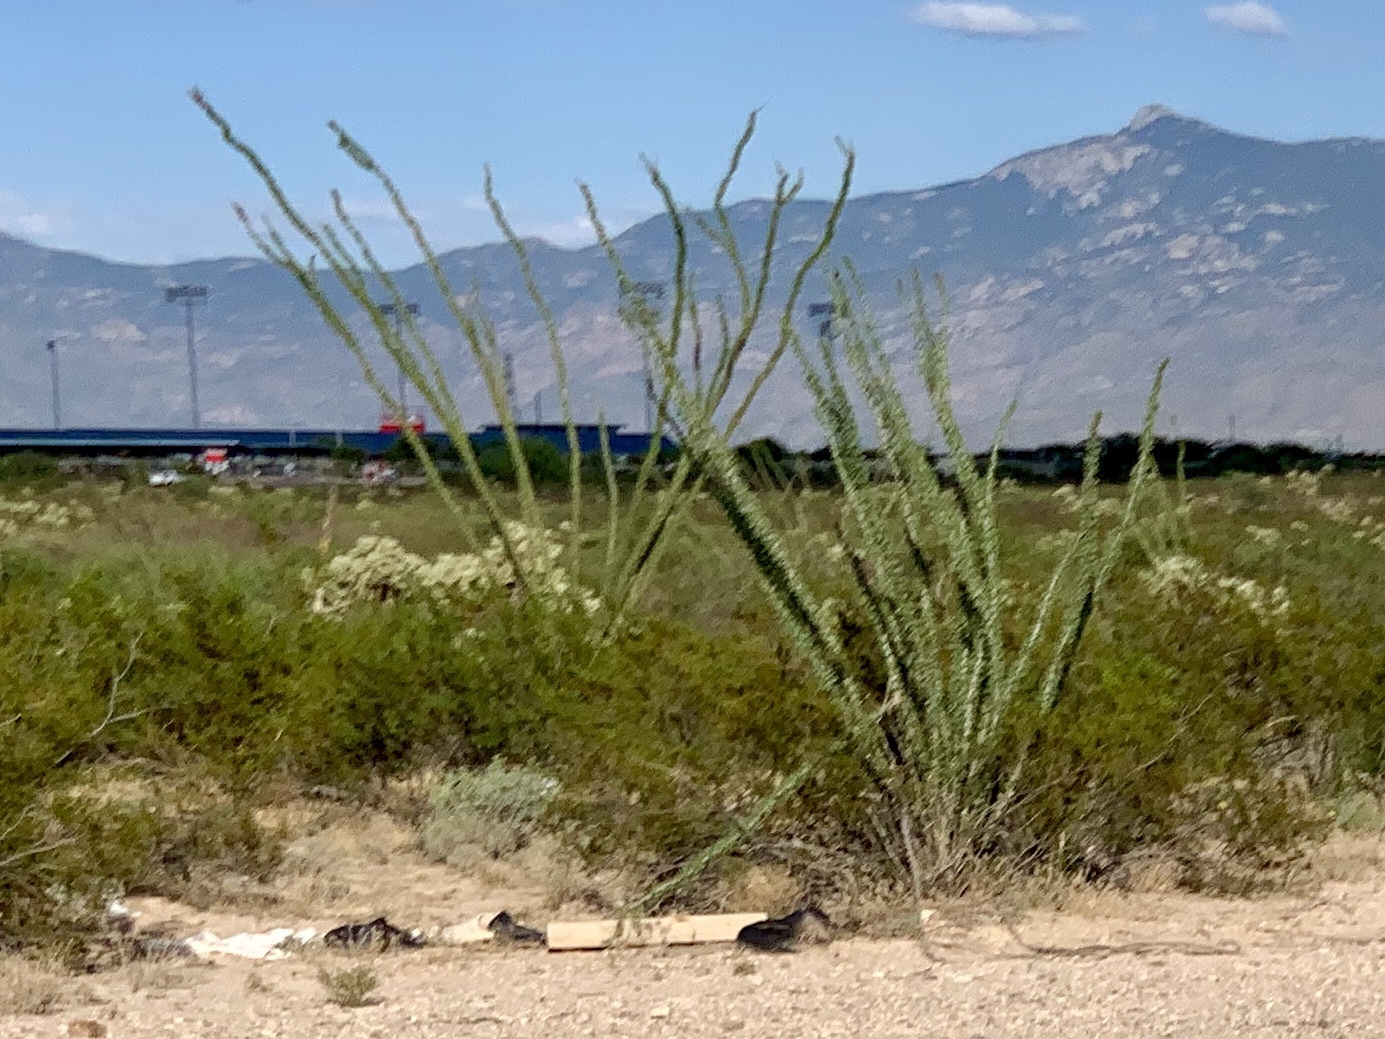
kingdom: Plantae
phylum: Tracheophyta
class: Magnoliopsida
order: Ericales
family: Fouquieriaceae
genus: Fouquieria
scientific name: Fouquieria splendens
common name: Vine-cactus
